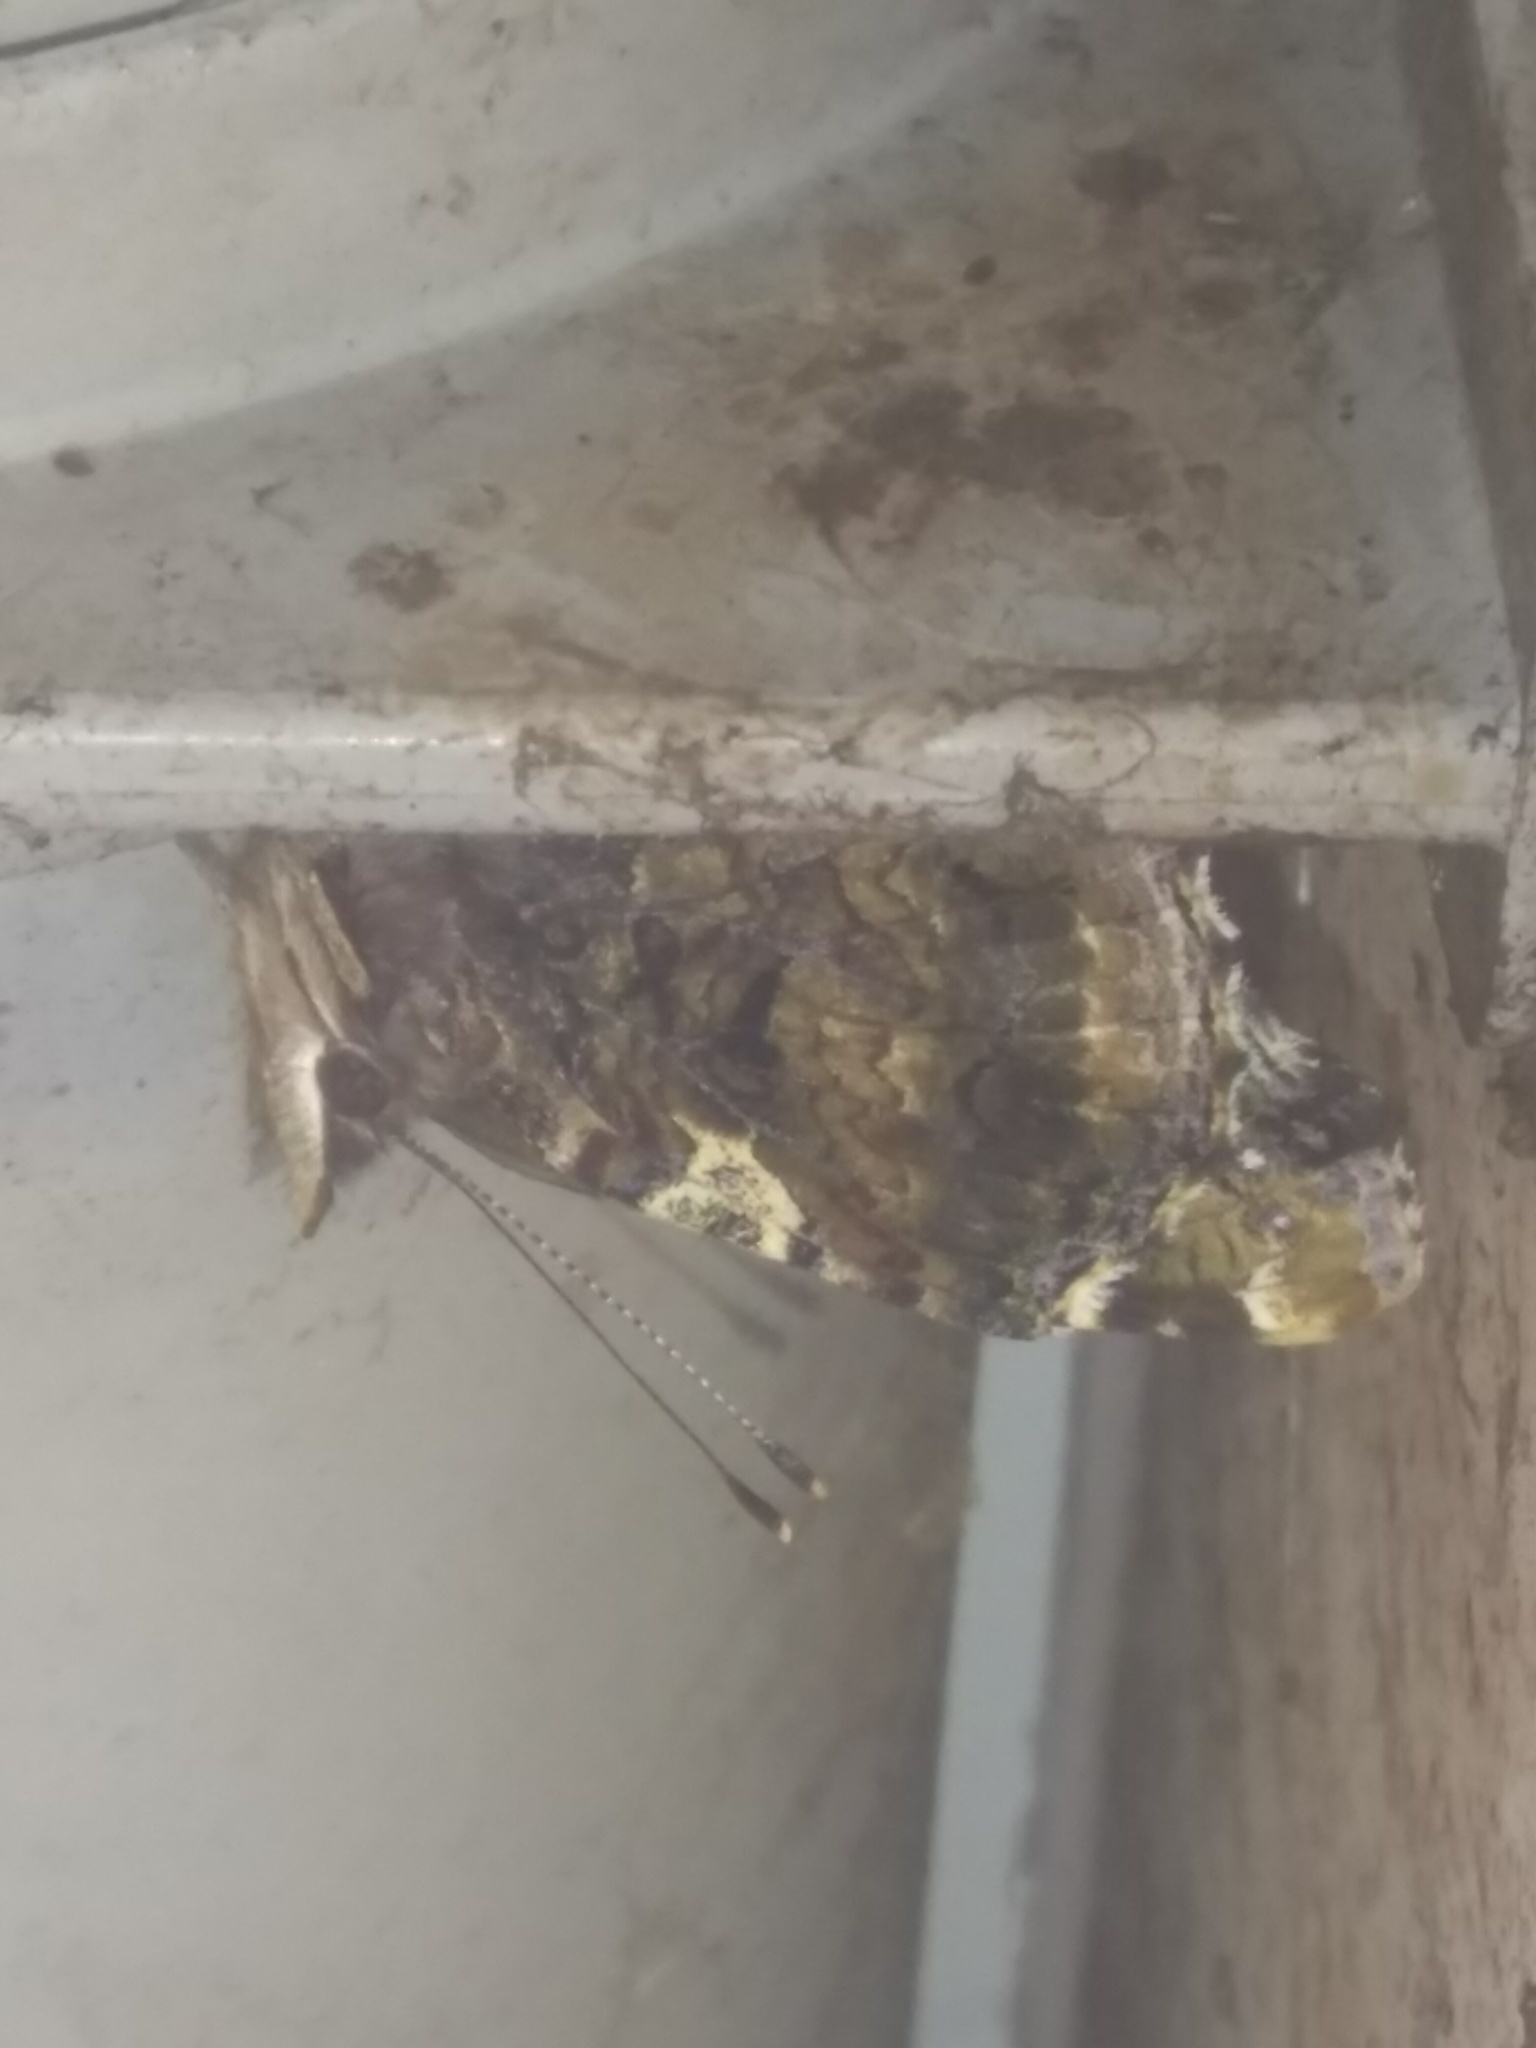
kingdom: Animalia
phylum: Arthropoda
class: Insecta
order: Lepidoptera
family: Nymphalidae
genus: Vanessa
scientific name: Vanessa atalanta
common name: Red admiral
